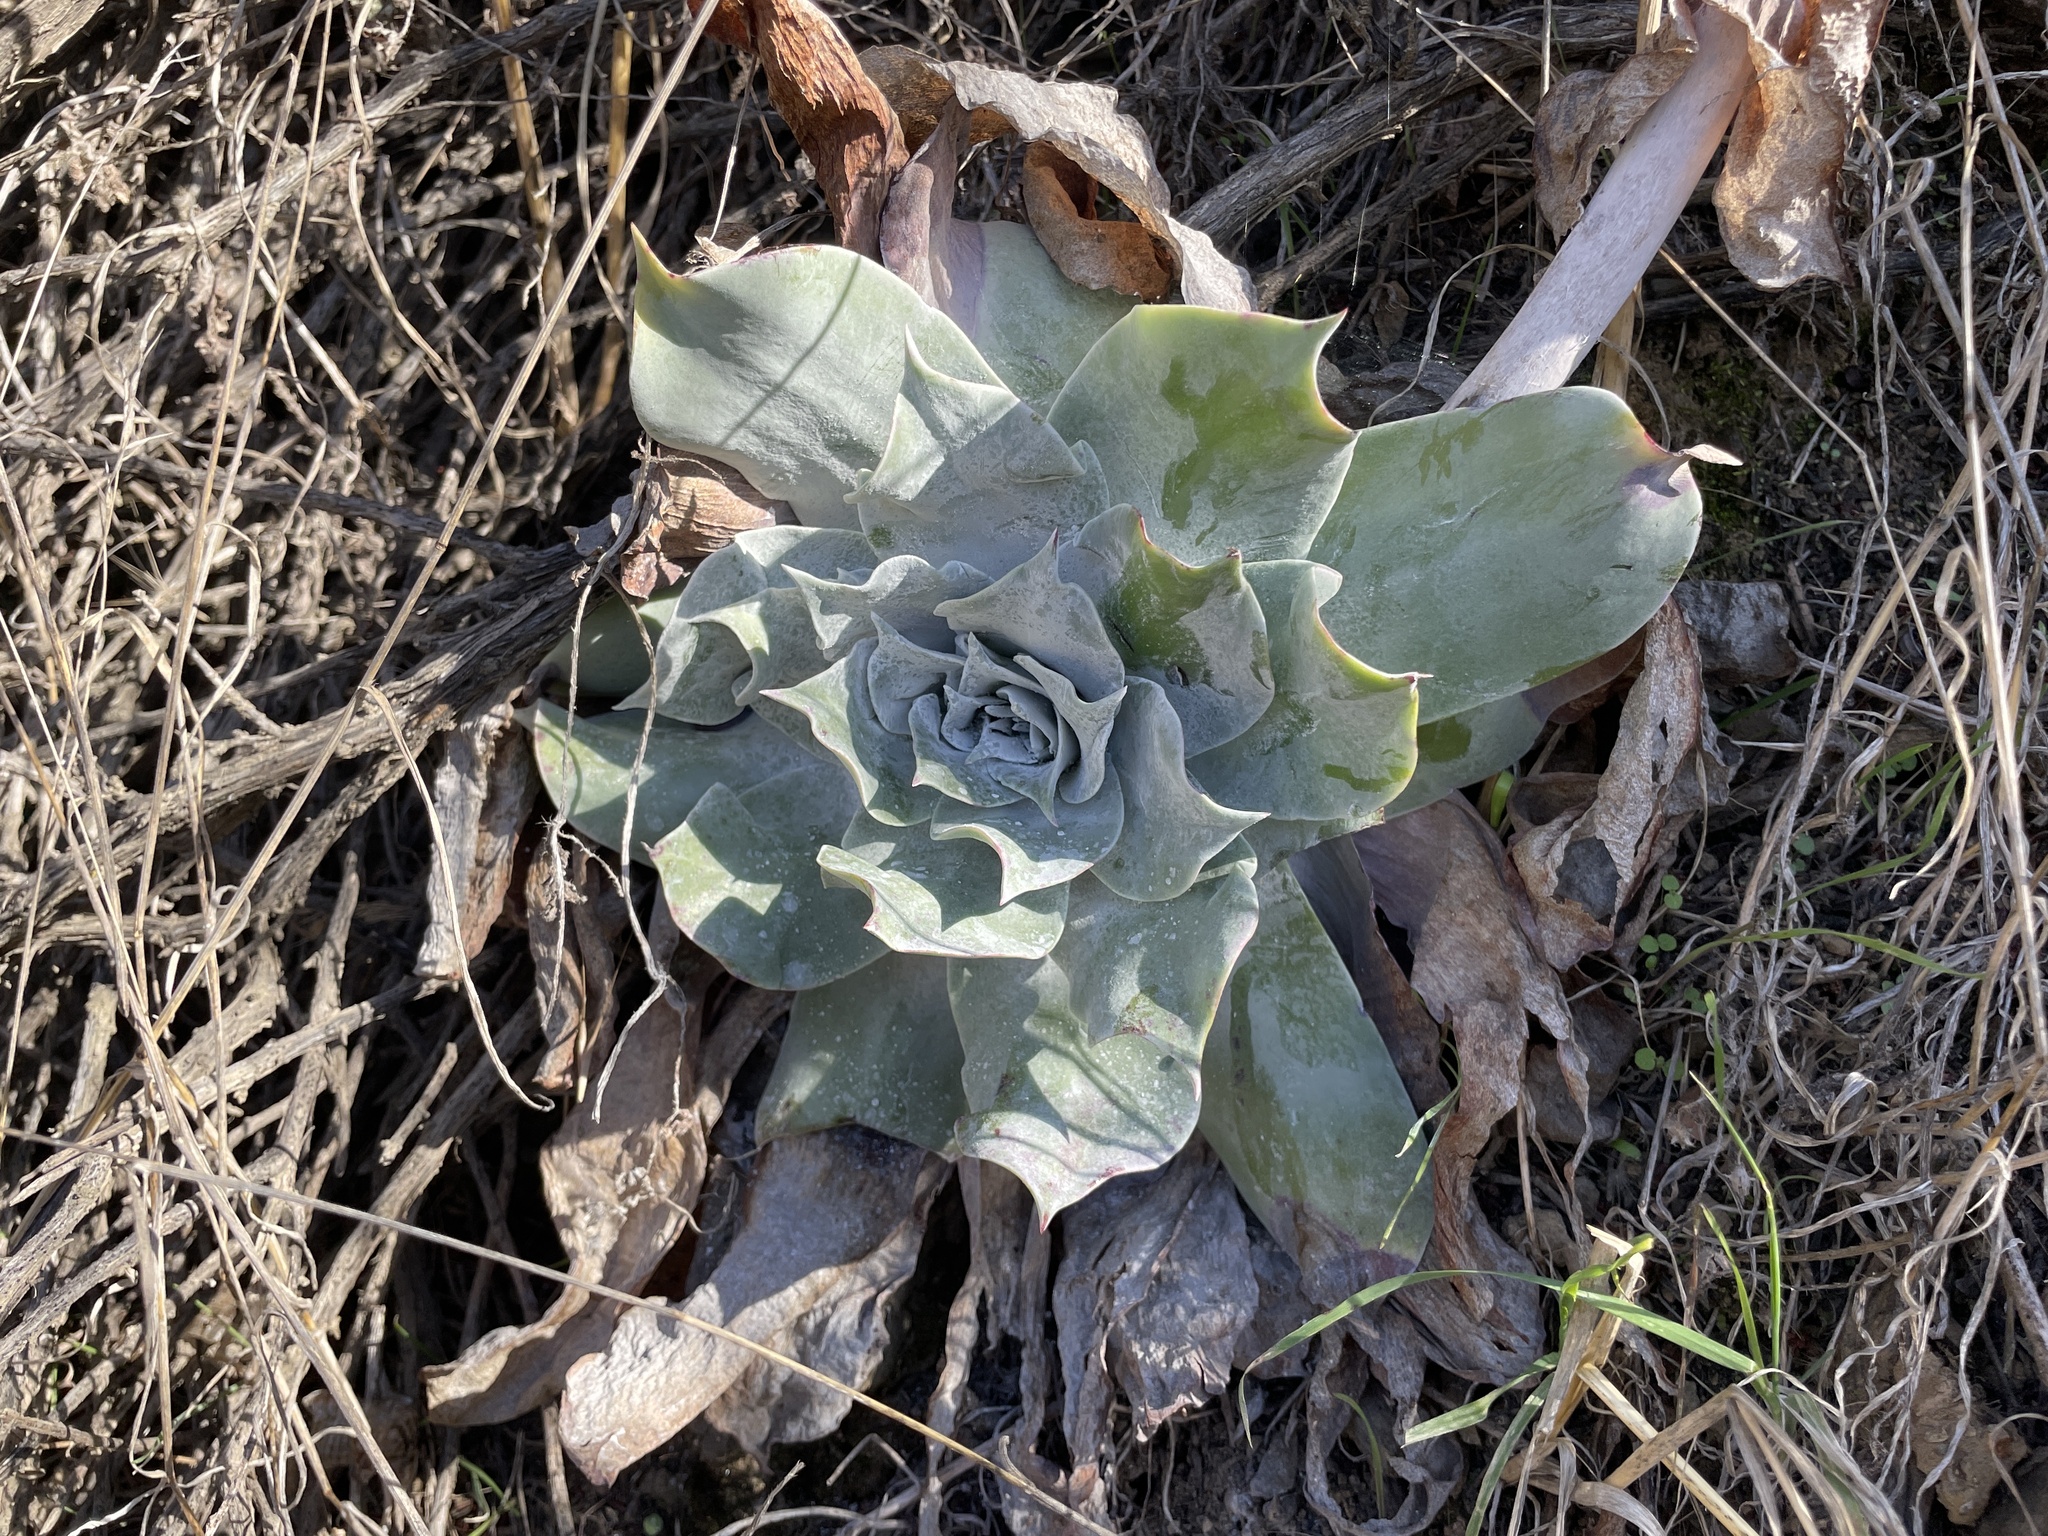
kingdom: Plantae
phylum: Tracheophyta
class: Magnoliopsida
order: Saxifragales
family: Crassulaceae
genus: Dudleya
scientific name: Dudleya pulverulenta
